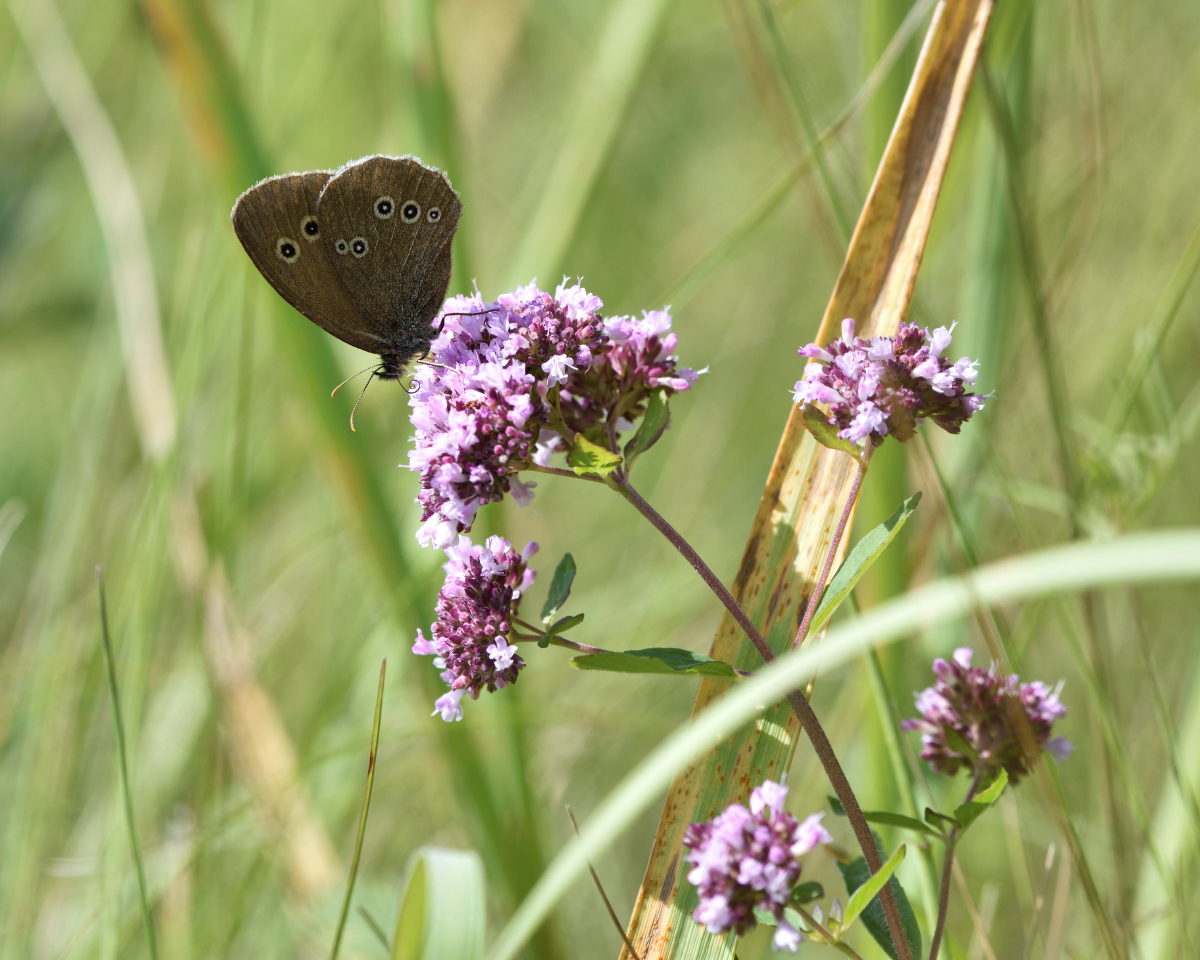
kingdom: Animalia
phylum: Arthropoda
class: Insecta
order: Lepidoptera
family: Nymphalidae
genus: Aphantopus
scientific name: Aphantopus hyperantus
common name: Ringlet
